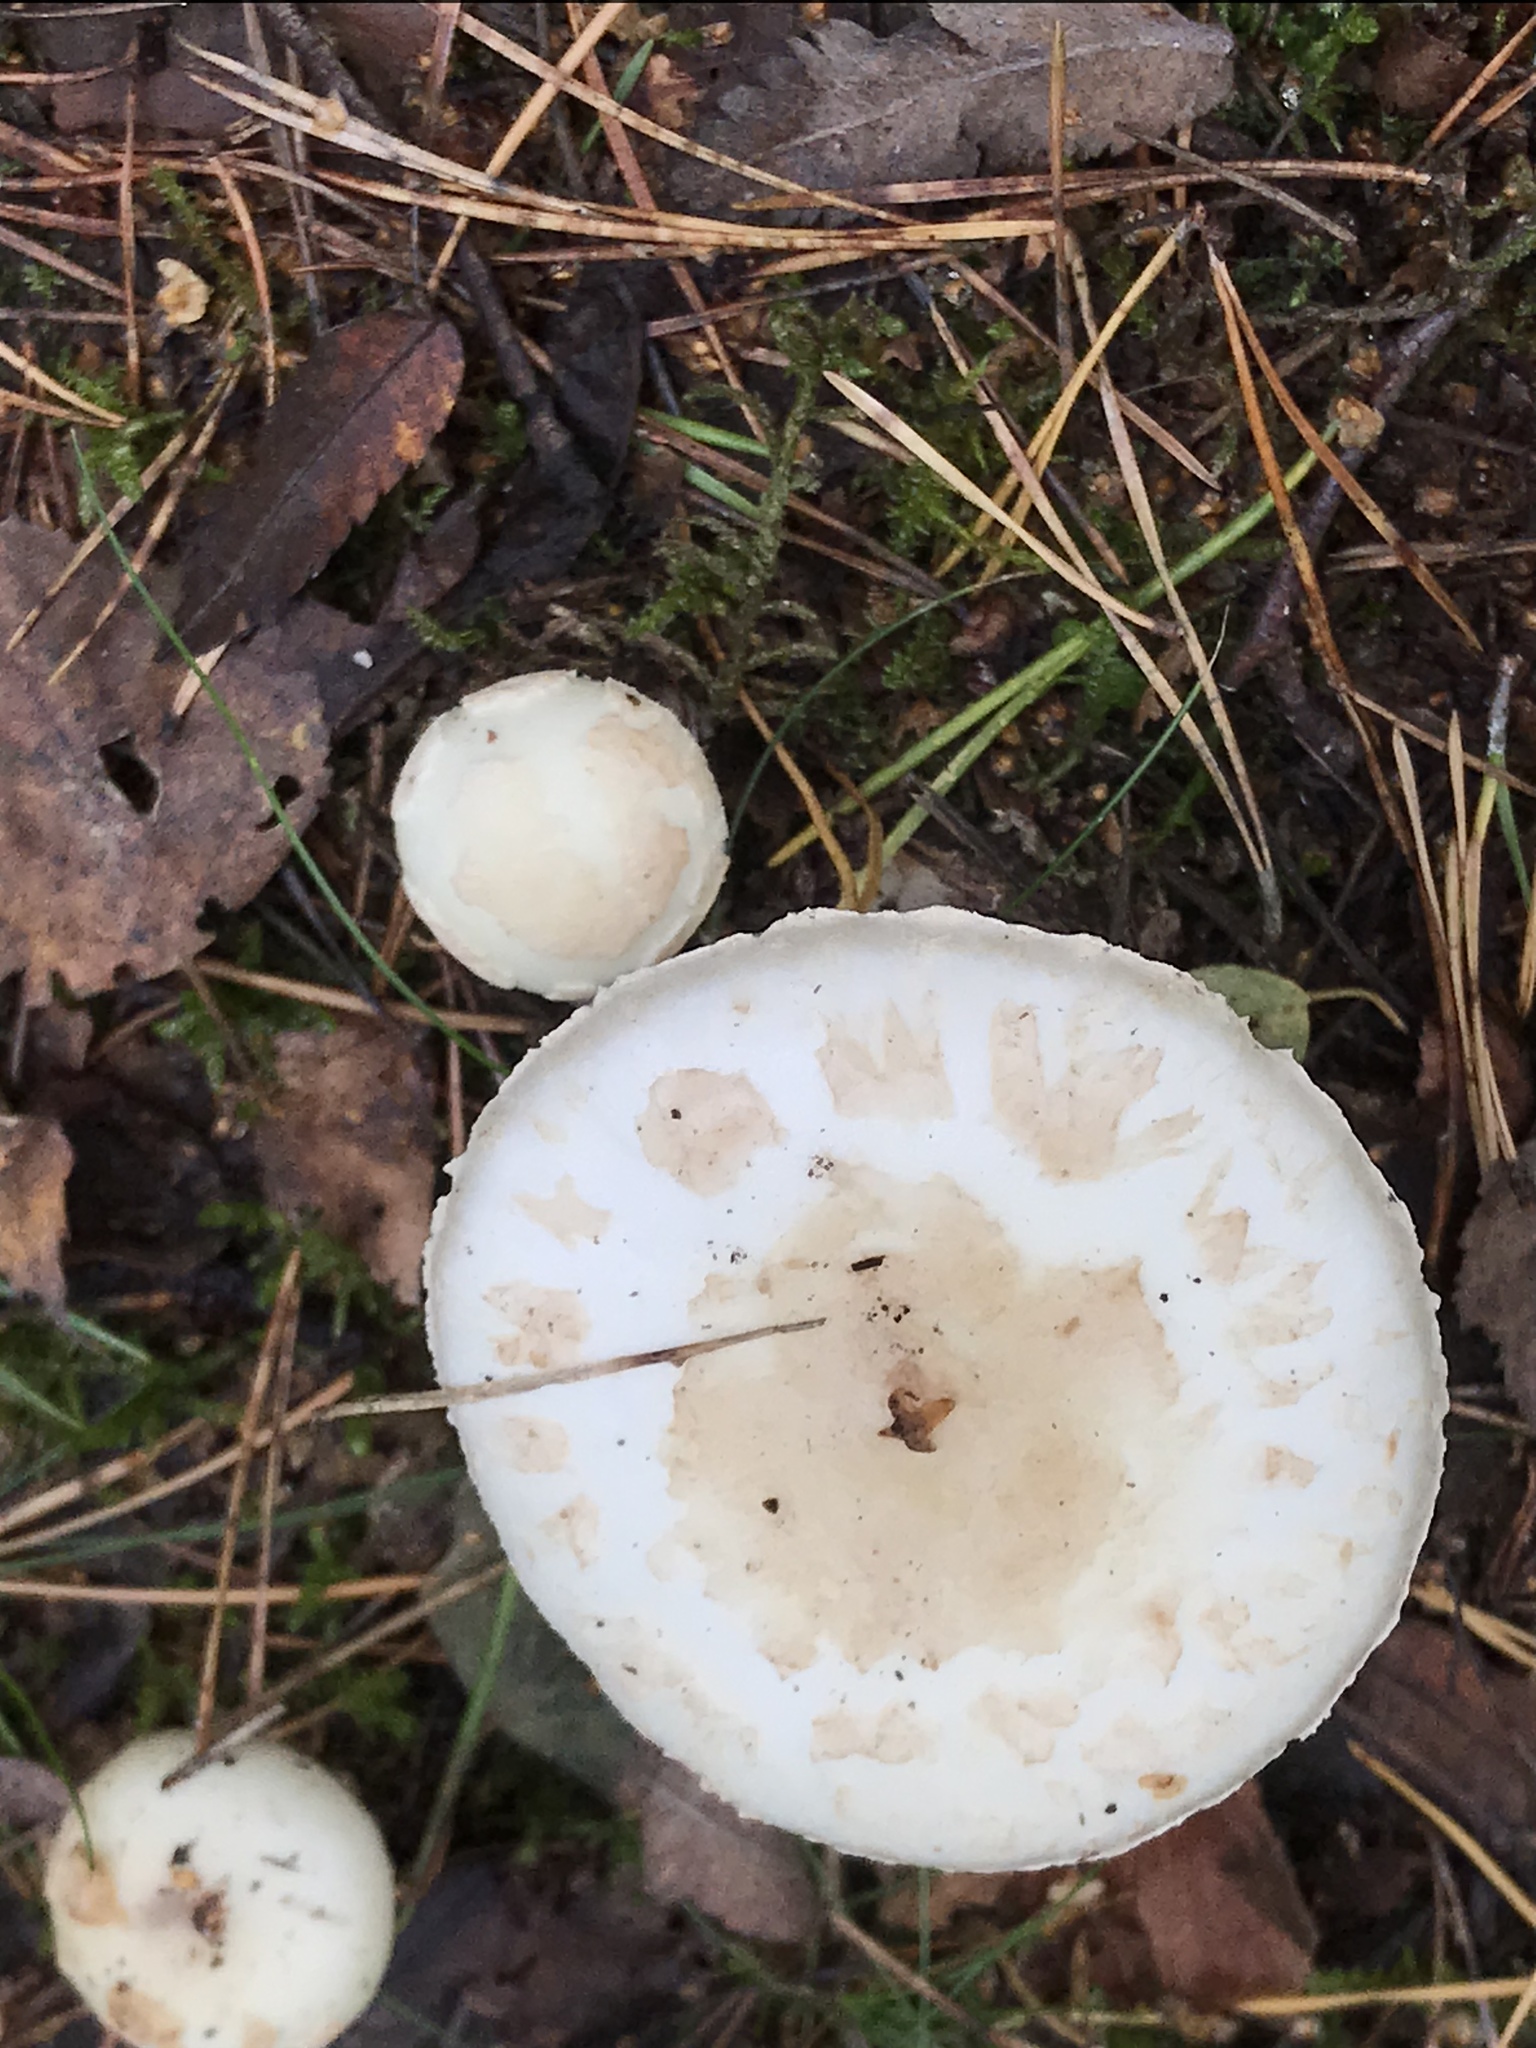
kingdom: Fungi
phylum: Basidiomycota
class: Agaricomycetes
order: Agaricales
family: Amanitaceae
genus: Amanita
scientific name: Amanita citrina
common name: False death-cap
